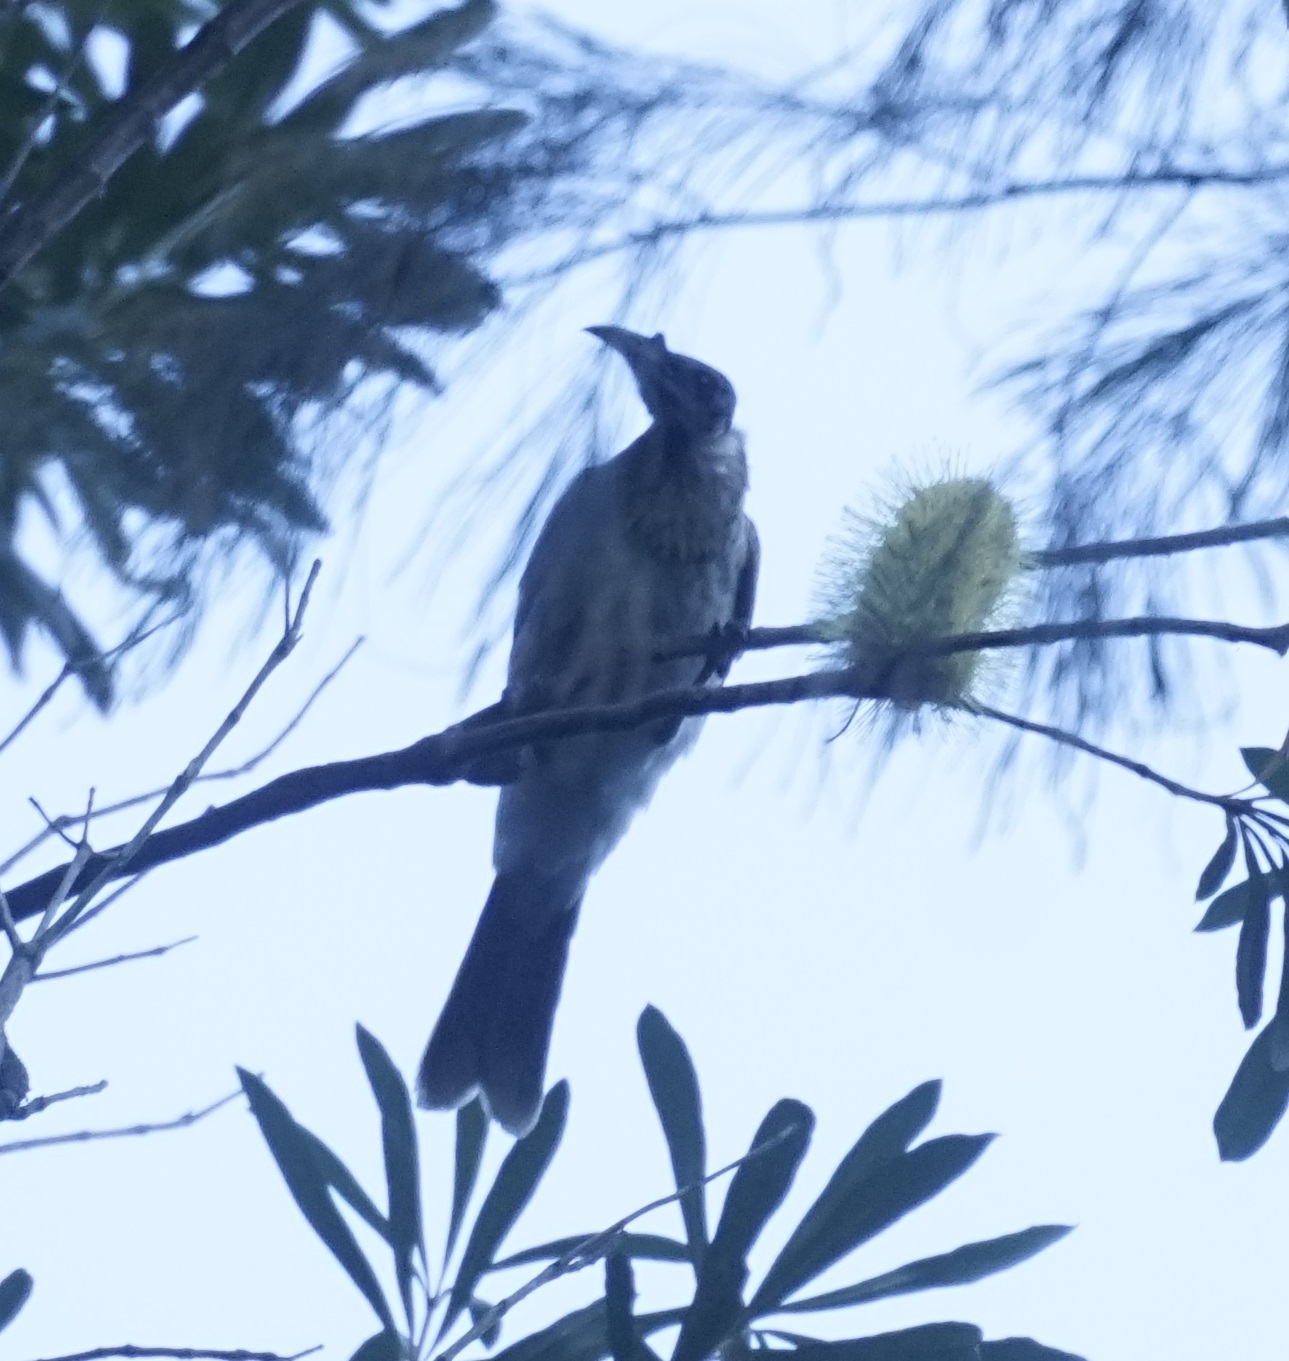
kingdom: Animalia
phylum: Chordata
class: Aves
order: Passeriformes
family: Meliphagidae
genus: Philemon
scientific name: Philemon corniculatus
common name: Noisy friarbird
